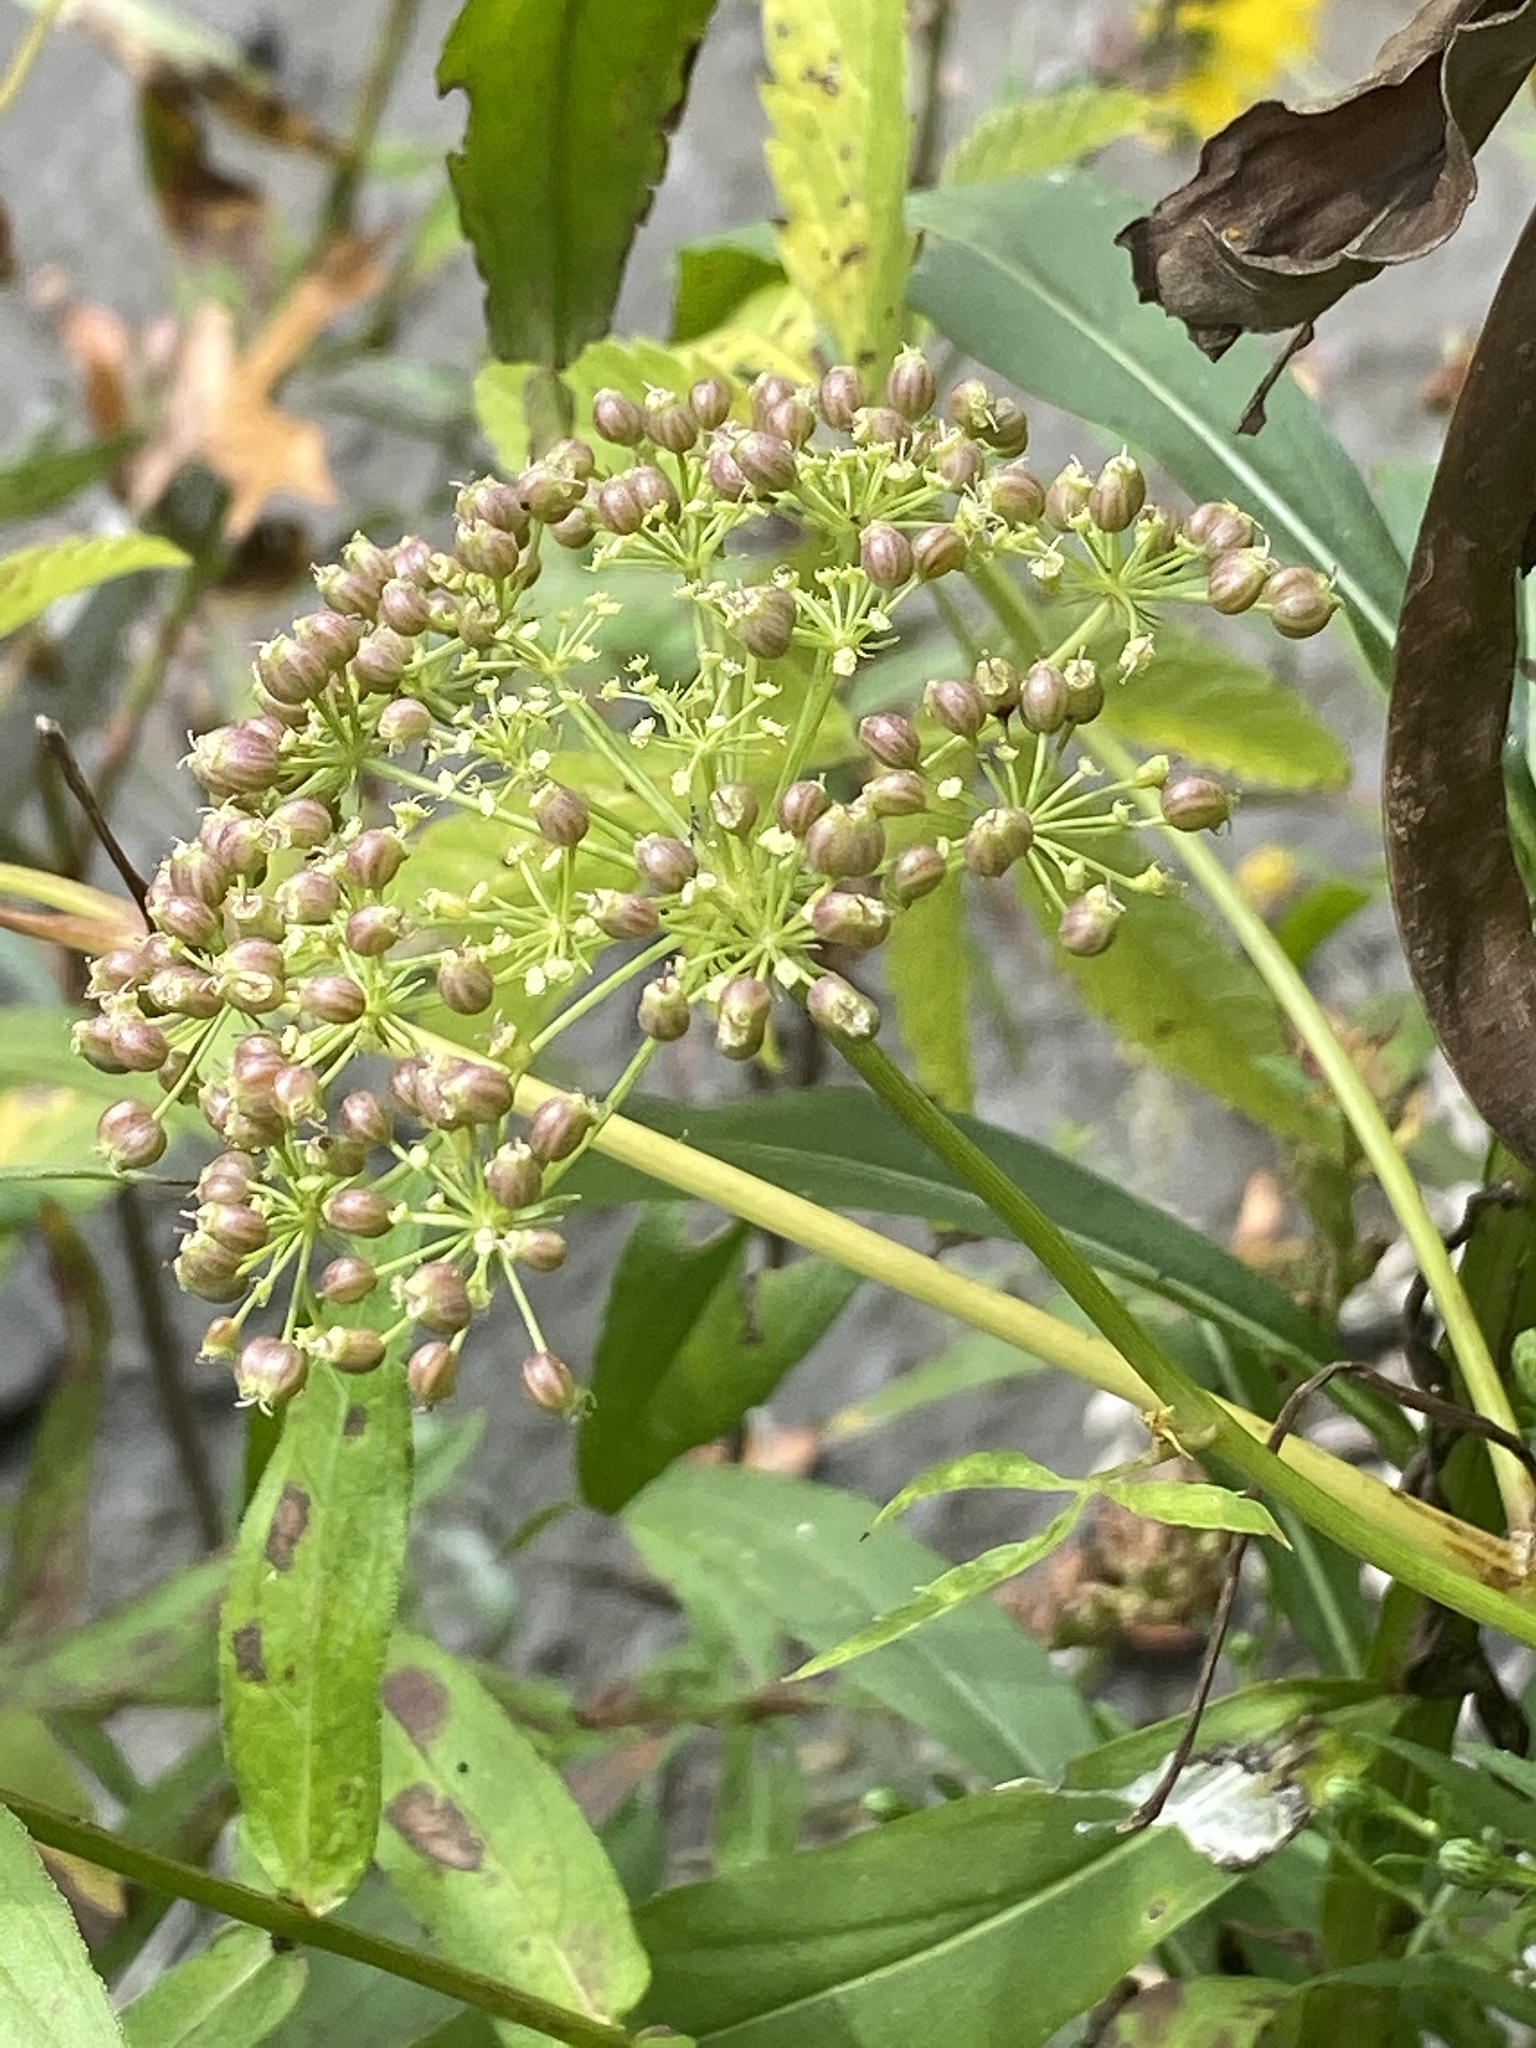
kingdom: Plantae
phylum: Tracheophyta
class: Magnoliopsida
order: Apiales
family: Apiaceae
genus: Cicuta
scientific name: Cicuta maculata
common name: Spotted cowbane
